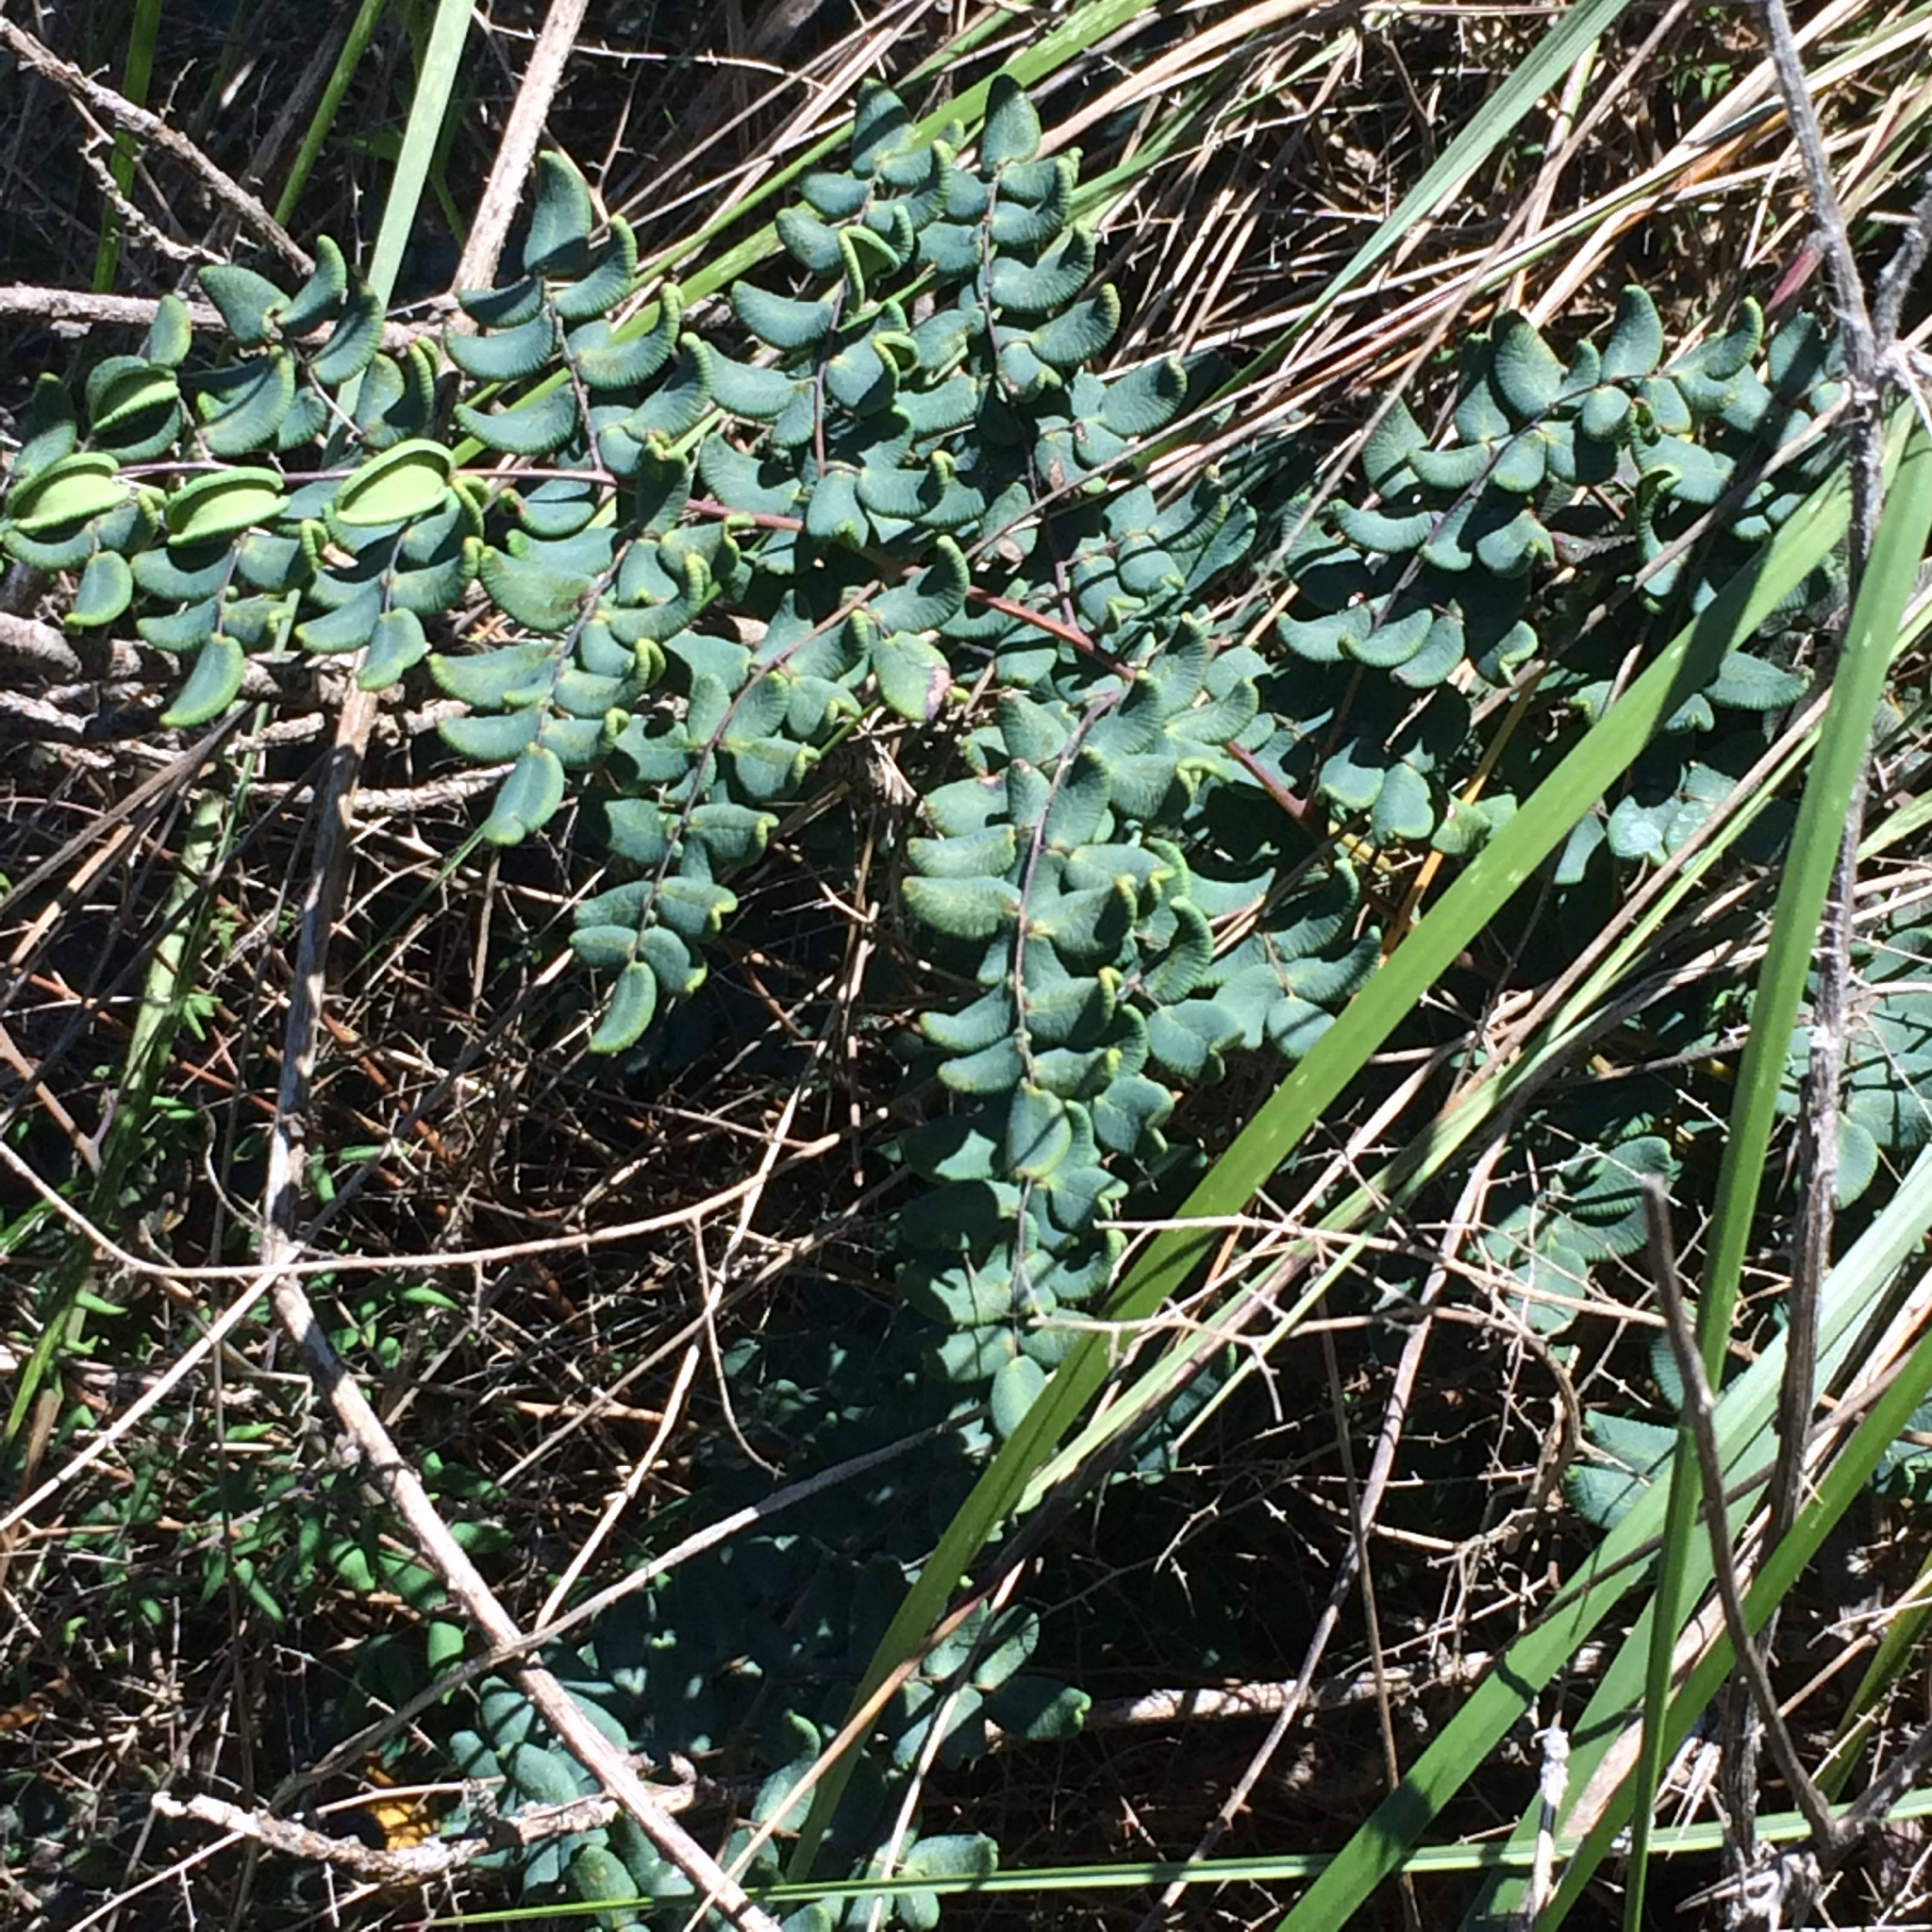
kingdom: Plantae
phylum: Tracheophyta
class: Polypodiopsida
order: Polypodiales
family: Pteridaceae
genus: Pellaea
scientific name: Pellaea andromedifolia
